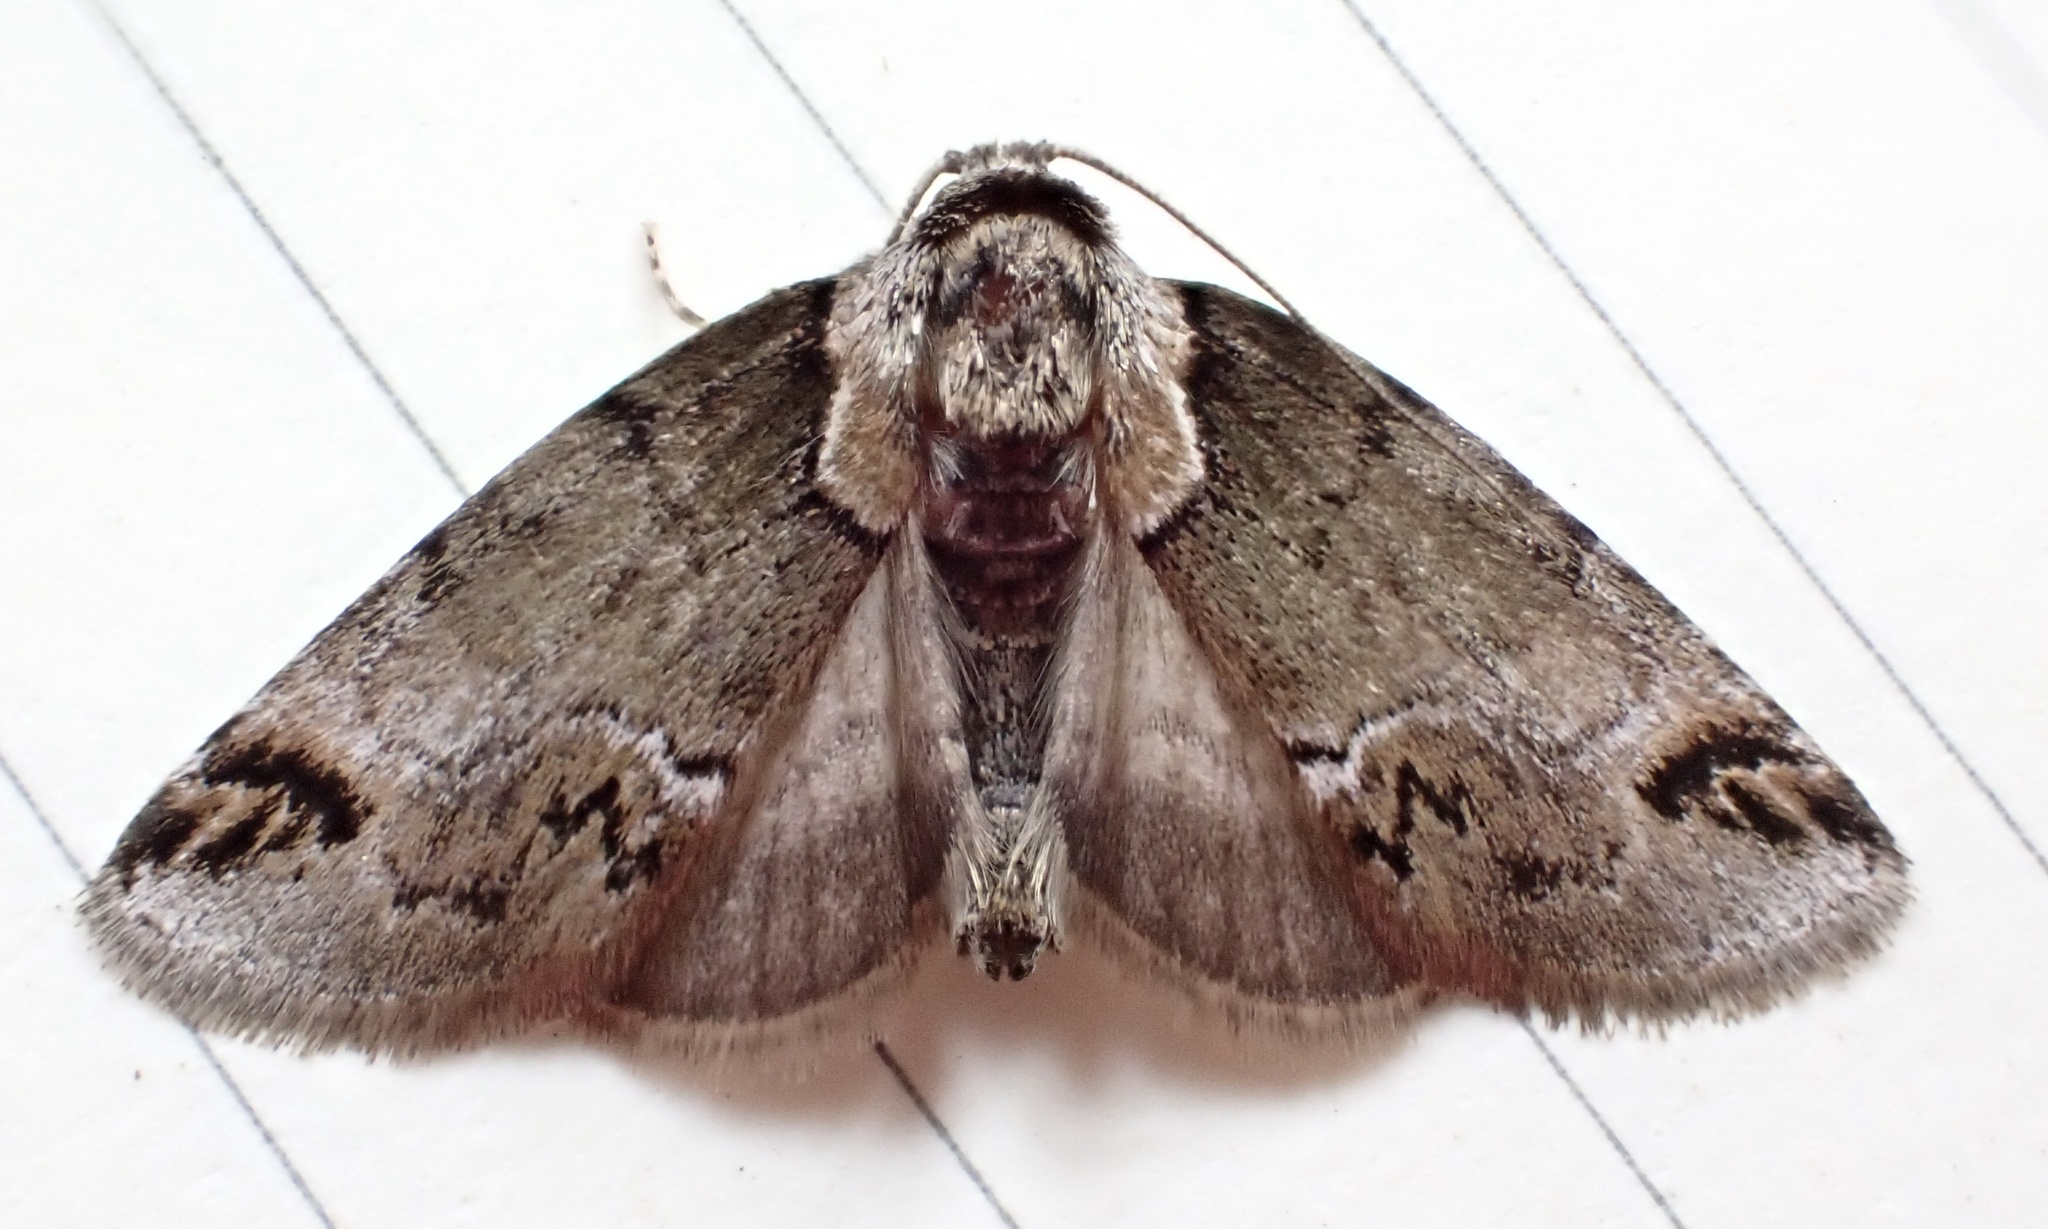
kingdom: Animalia
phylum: Arthropoda
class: Insecta
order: Lepidoptera
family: Nolidae
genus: Baileya
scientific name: Baileya australis
